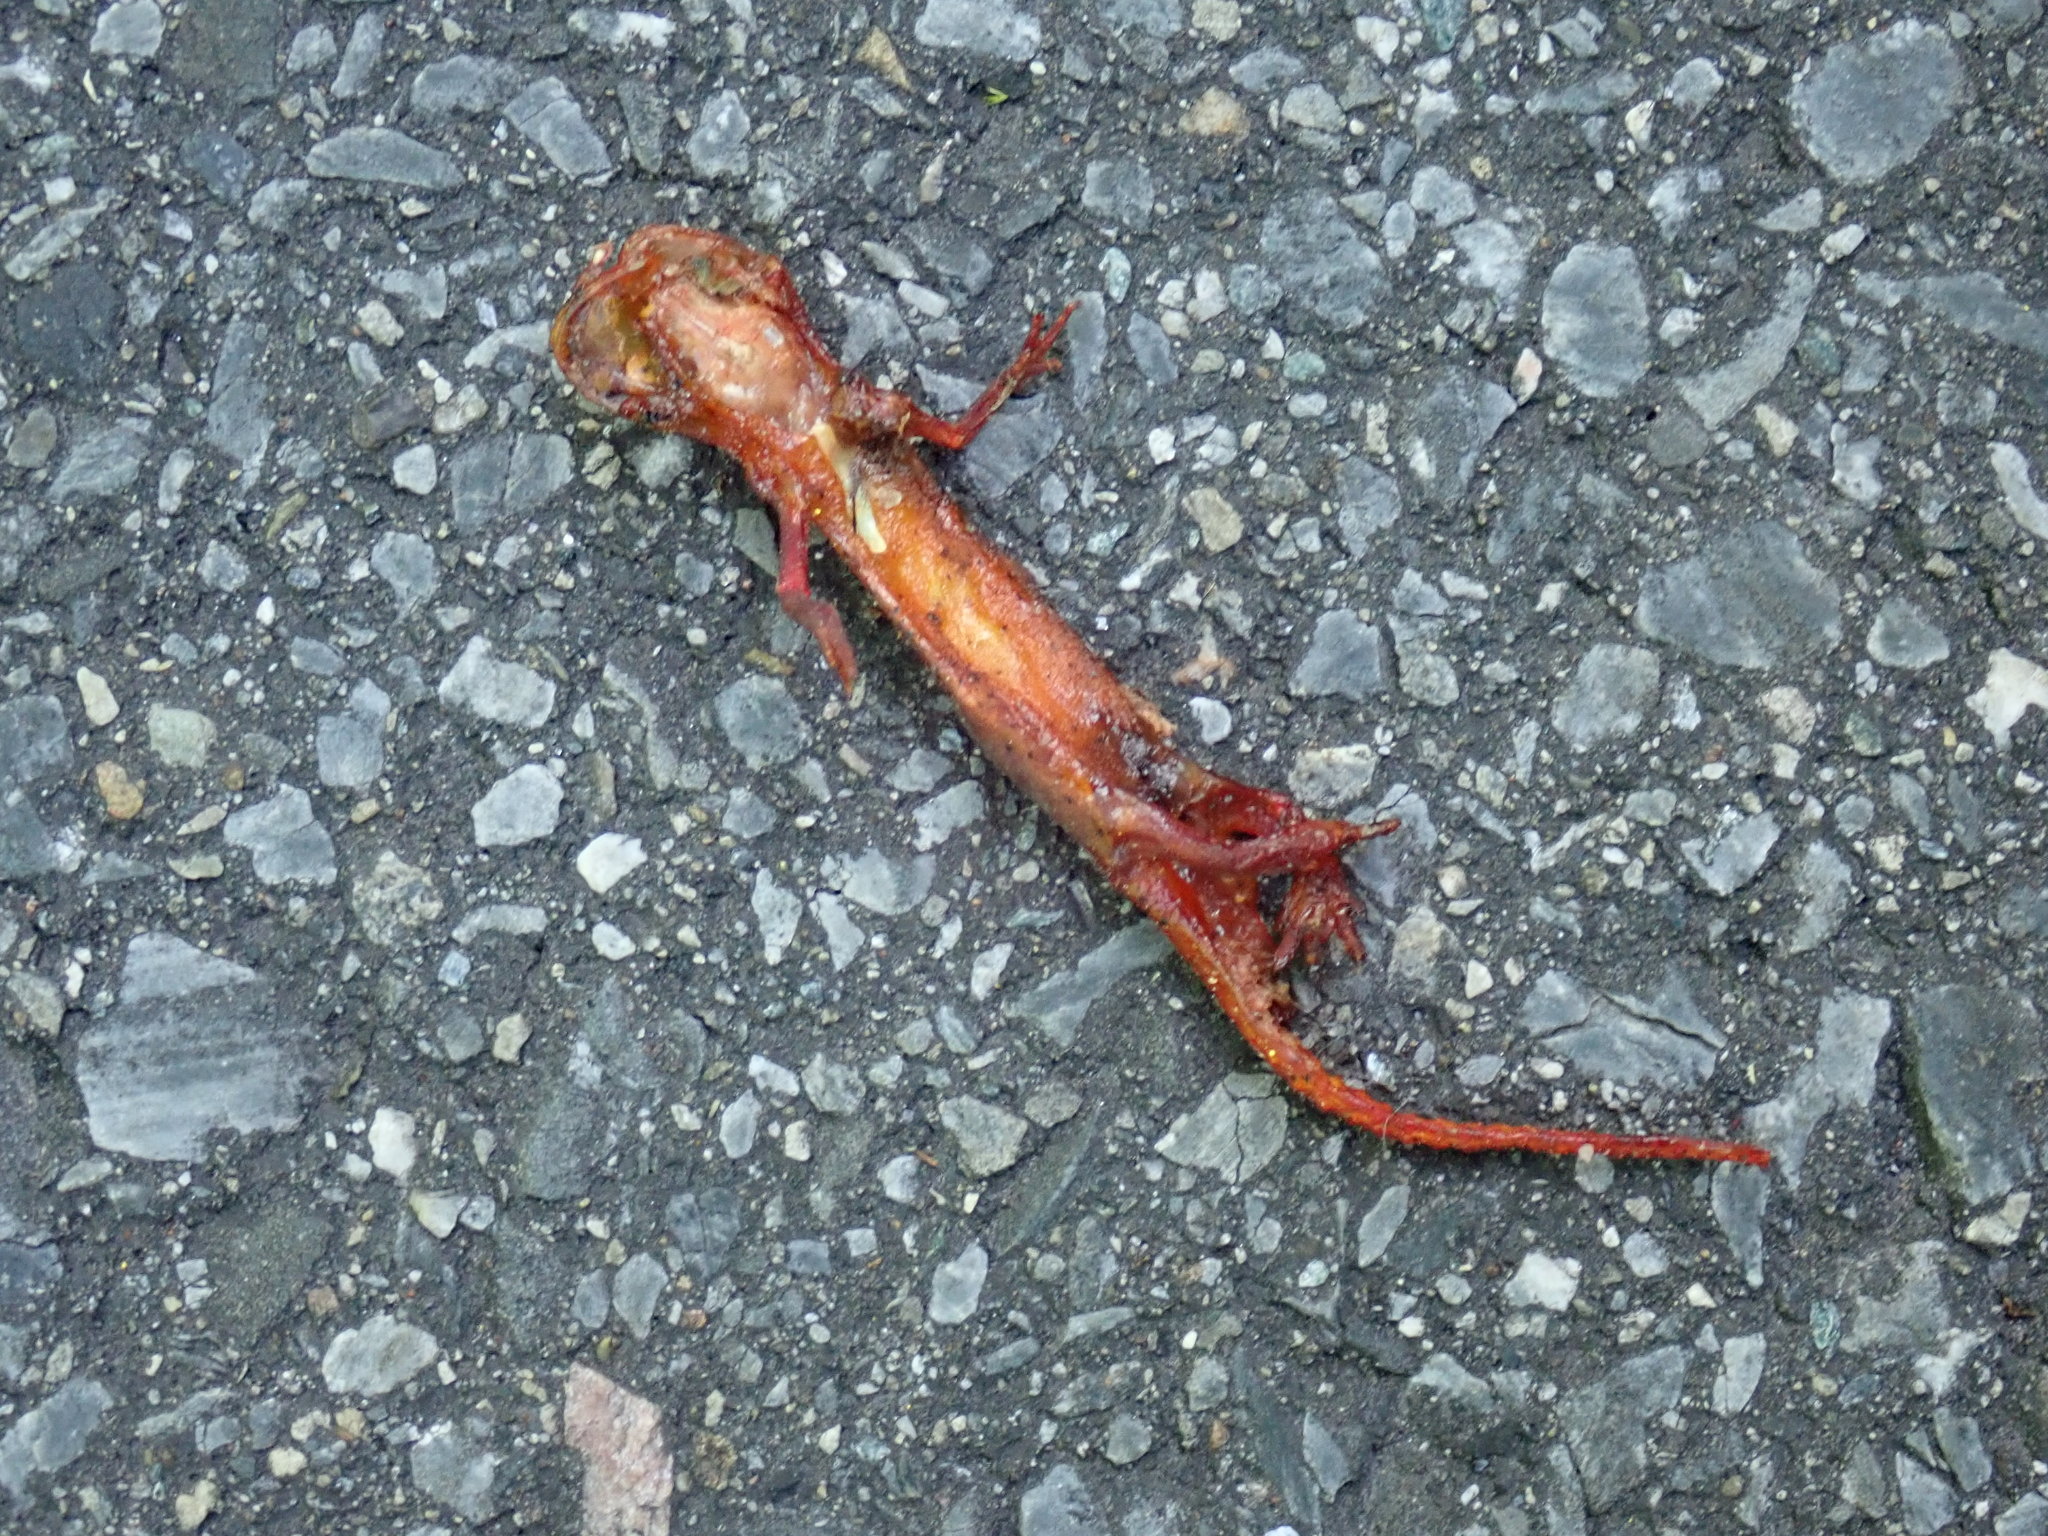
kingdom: Animalia
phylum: Chordata
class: Amphibia
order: Caudata
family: Salamandridae
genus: Notophthalmus
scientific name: Notophthalmus viridescens
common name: Eastern newt
